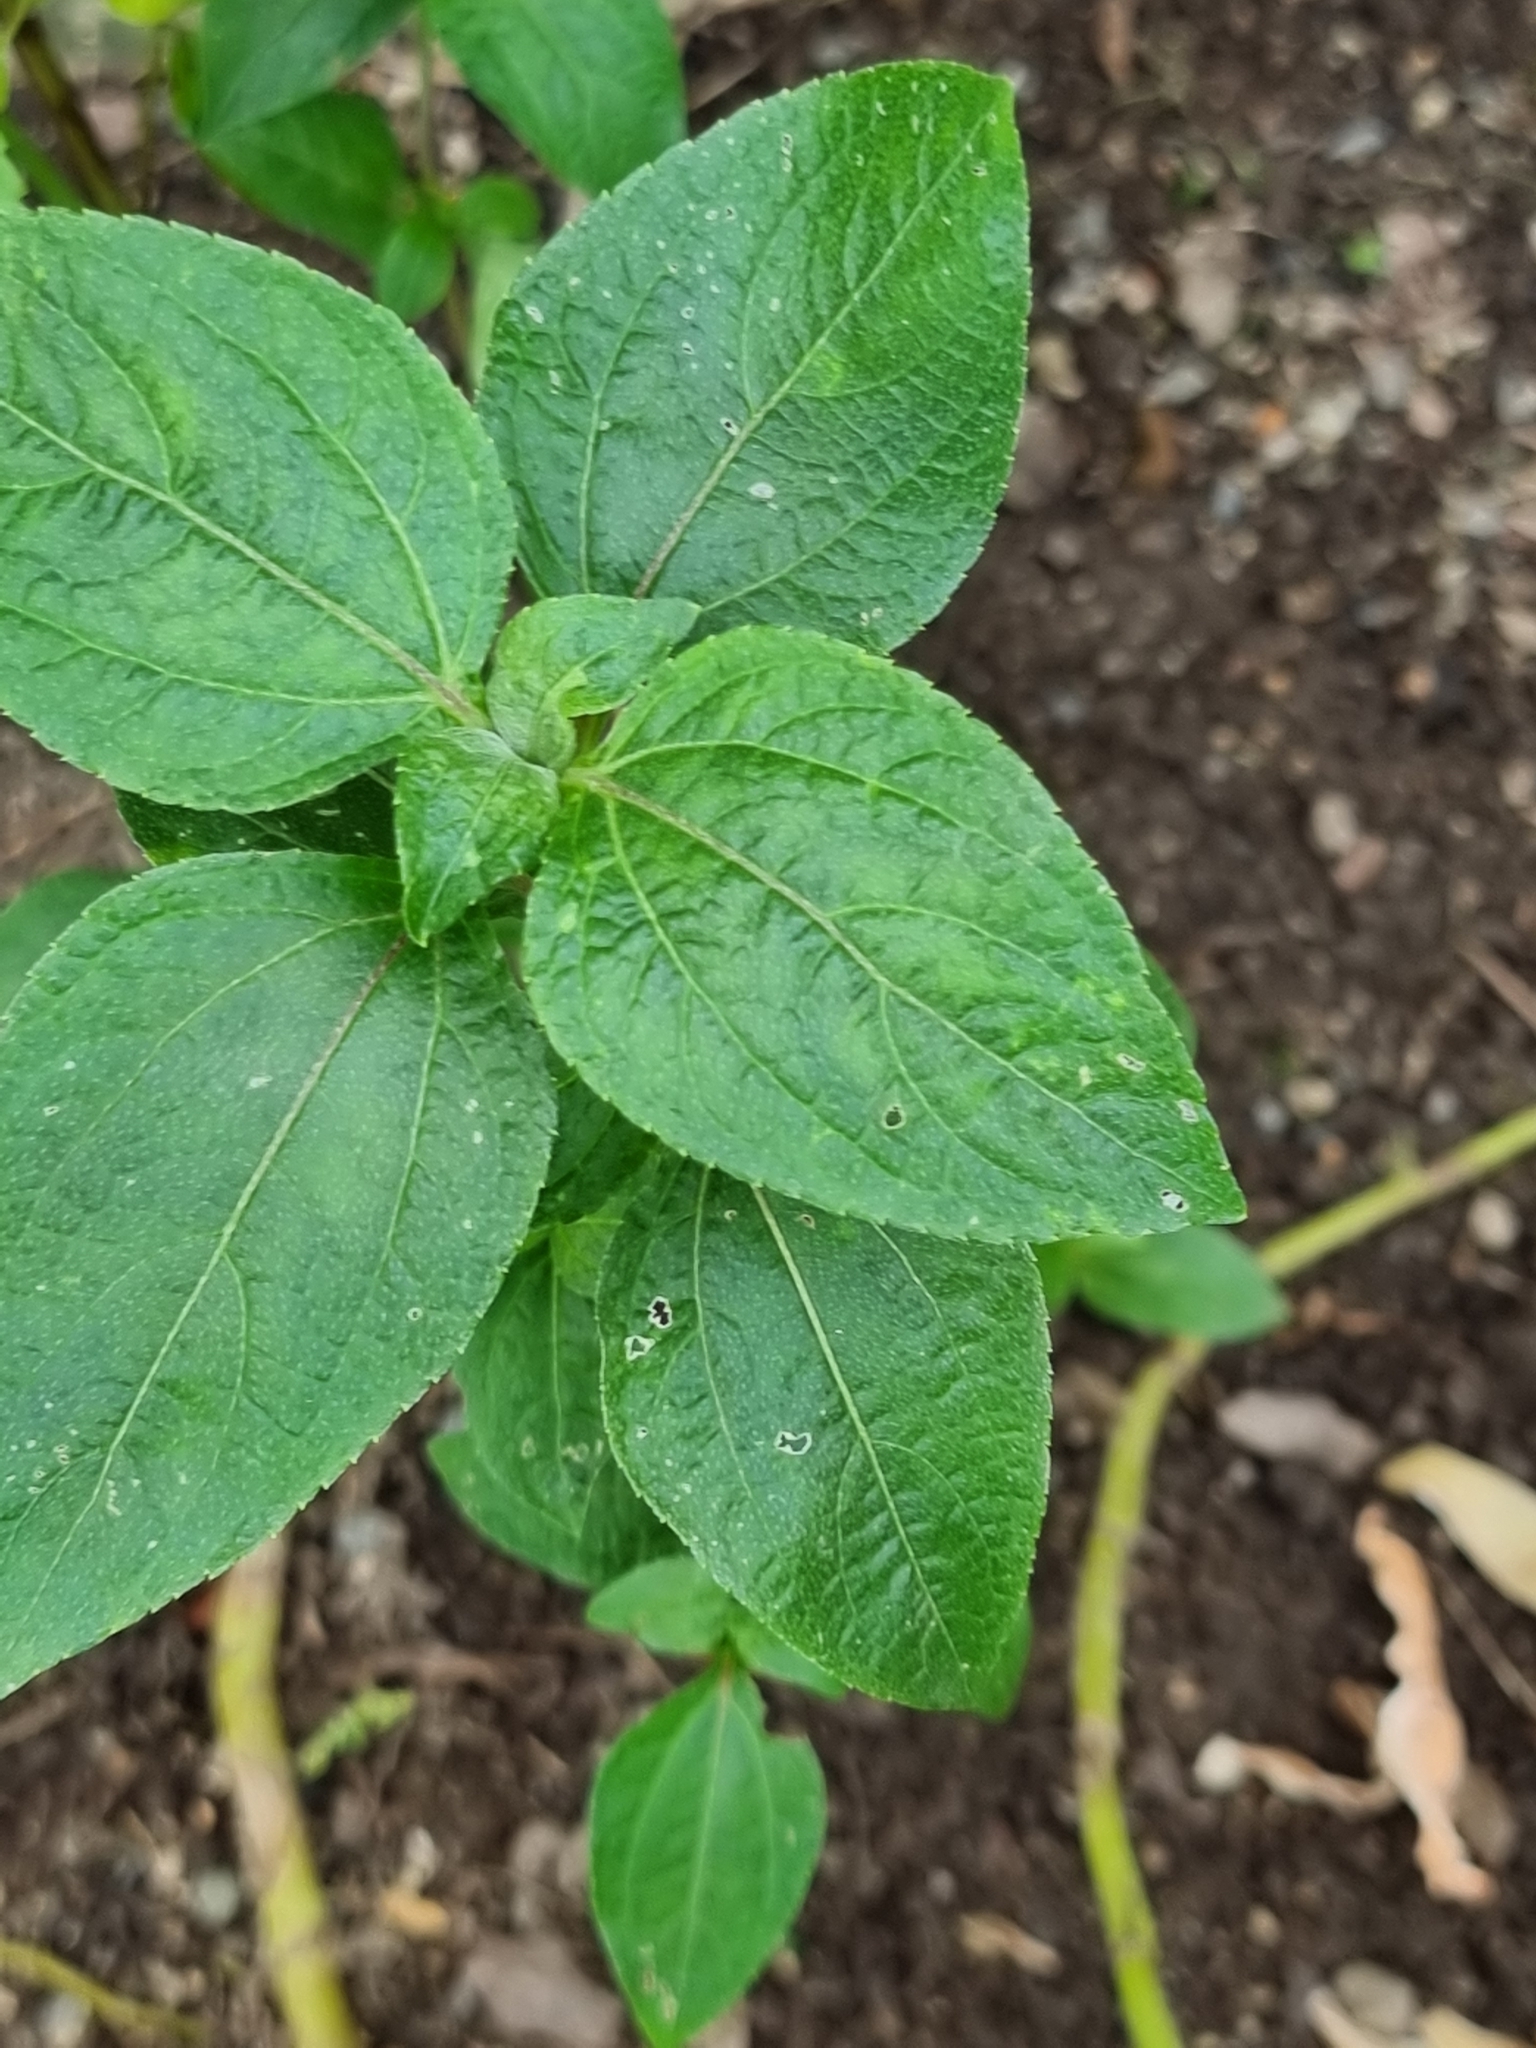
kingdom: Plantae
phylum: Tracheophyta
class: Magnoliopsida
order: Asterales
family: Asteraceae
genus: Synedrella
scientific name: Synedrella nodiflora
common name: Nodeweed
